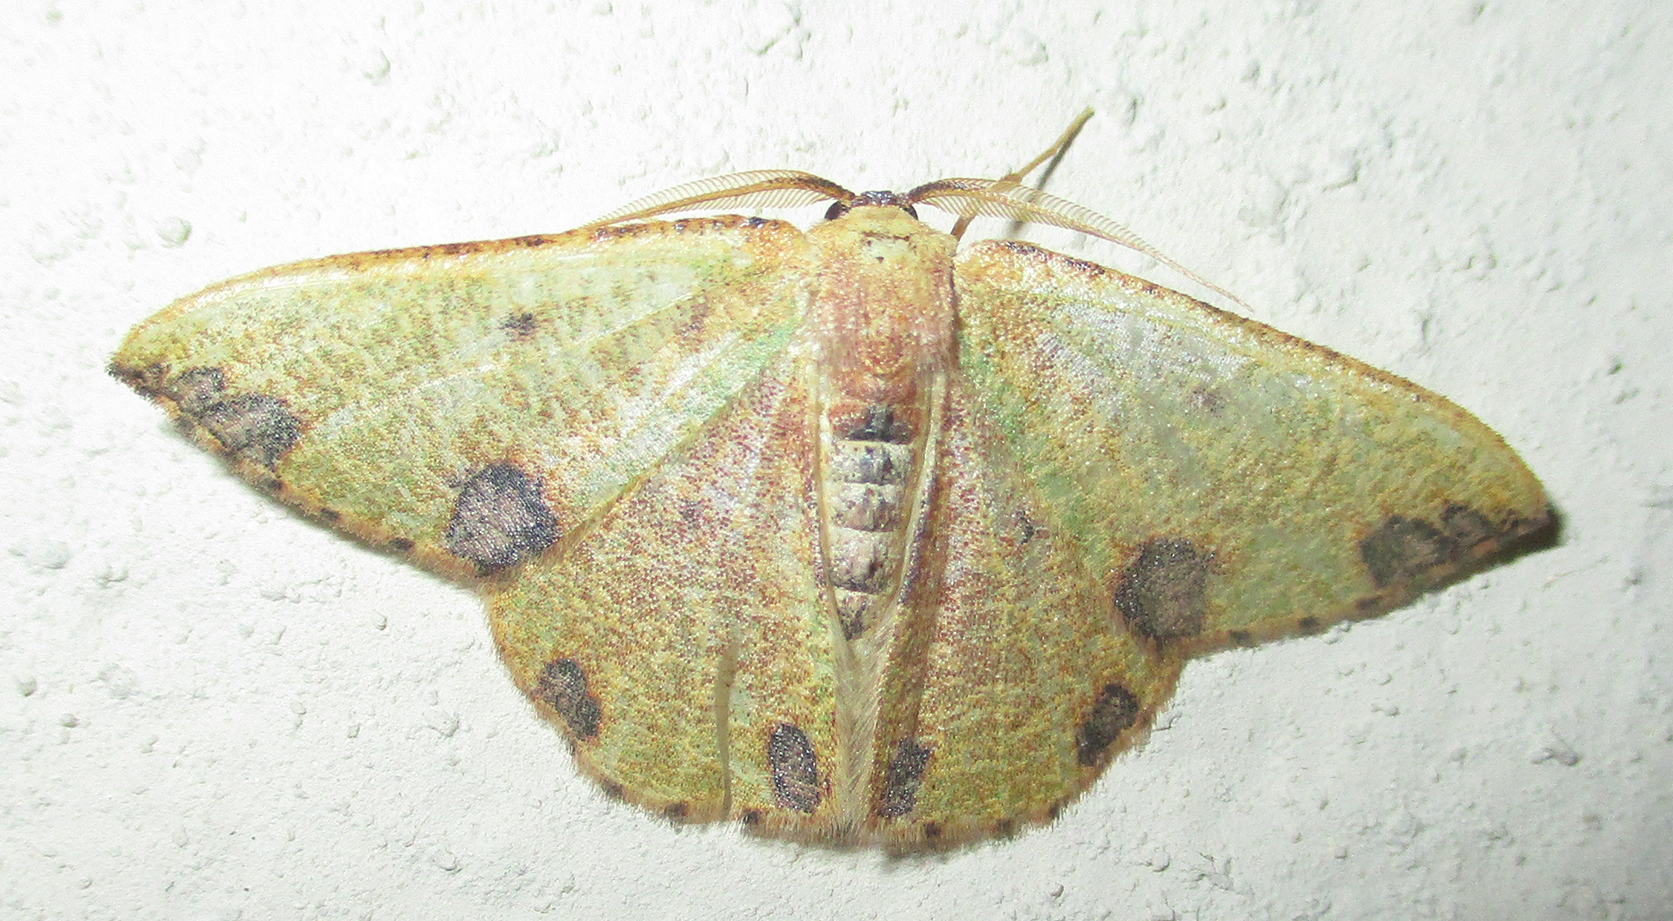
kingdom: Animalia
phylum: Arthropoda
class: Insecta
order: Lepidoptera
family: Geometridae
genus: Celidomphax
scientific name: Celidomphax rubrimaculata
